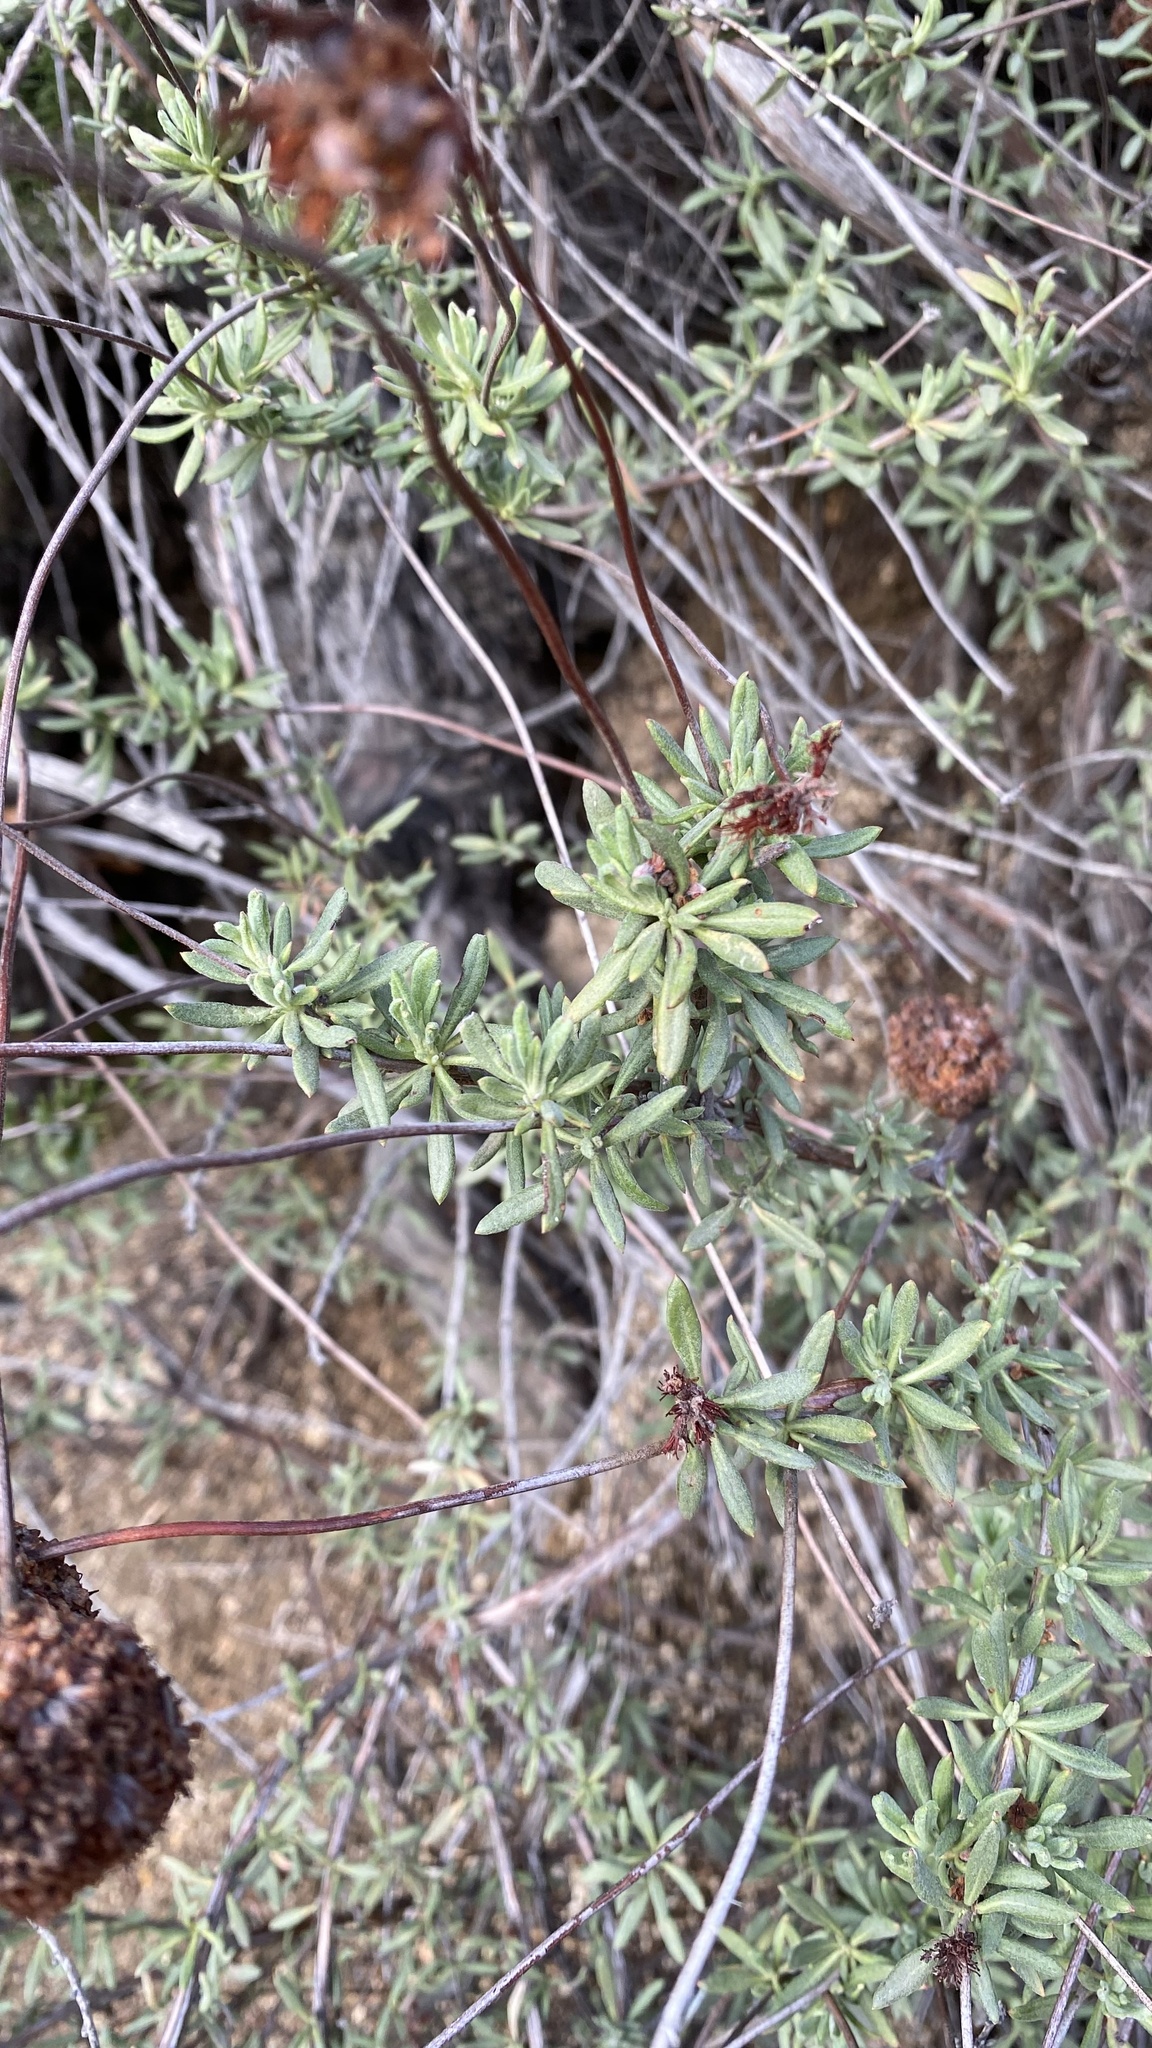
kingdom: Plantae
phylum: Tracheophyta
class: Magnoliopsida
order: Caryophyllales
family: Polygonaceae
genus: Eriogonum
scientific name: Eriogonum fasciculatum
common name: California wild buckwheat
